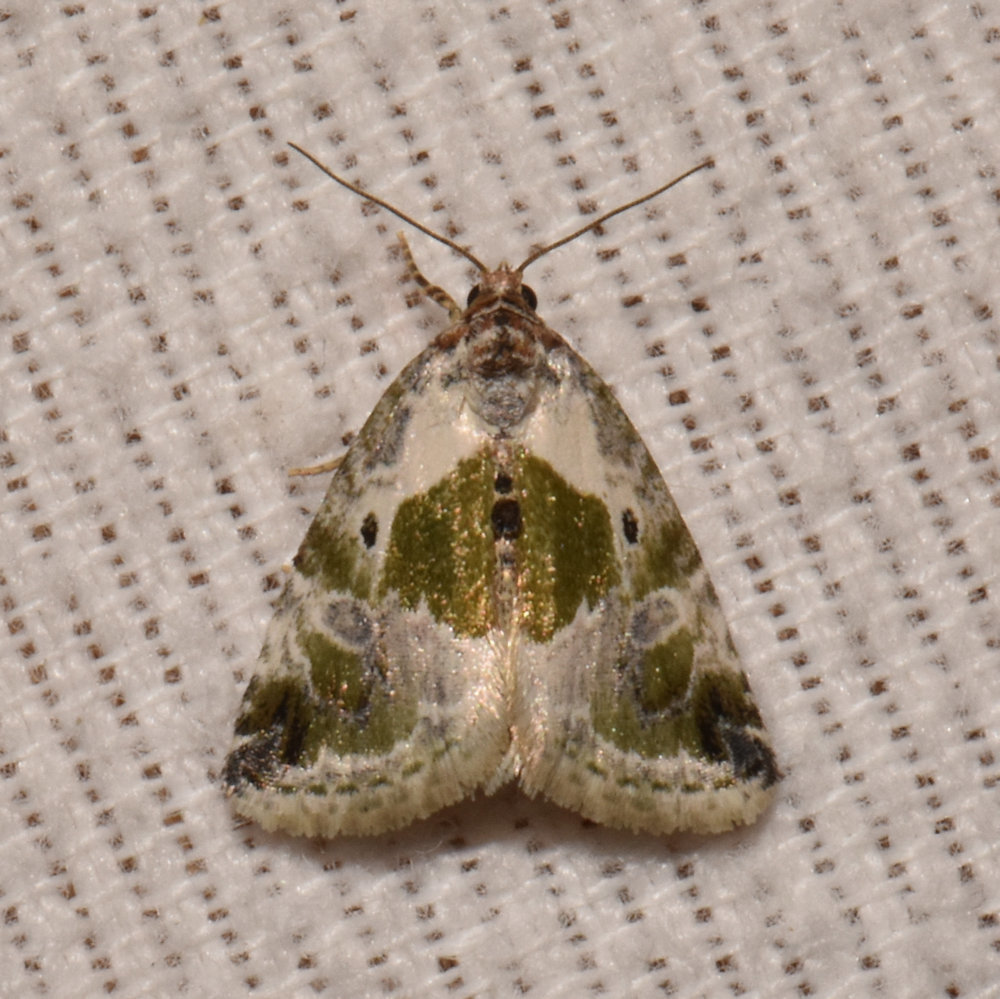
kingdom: Animalia
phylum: Arthropoda
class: Insecta
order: Lepidoptera
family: Noctuidae
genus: Maliattha
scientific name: Maliattha synochitis
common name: Black-dotted glyph
